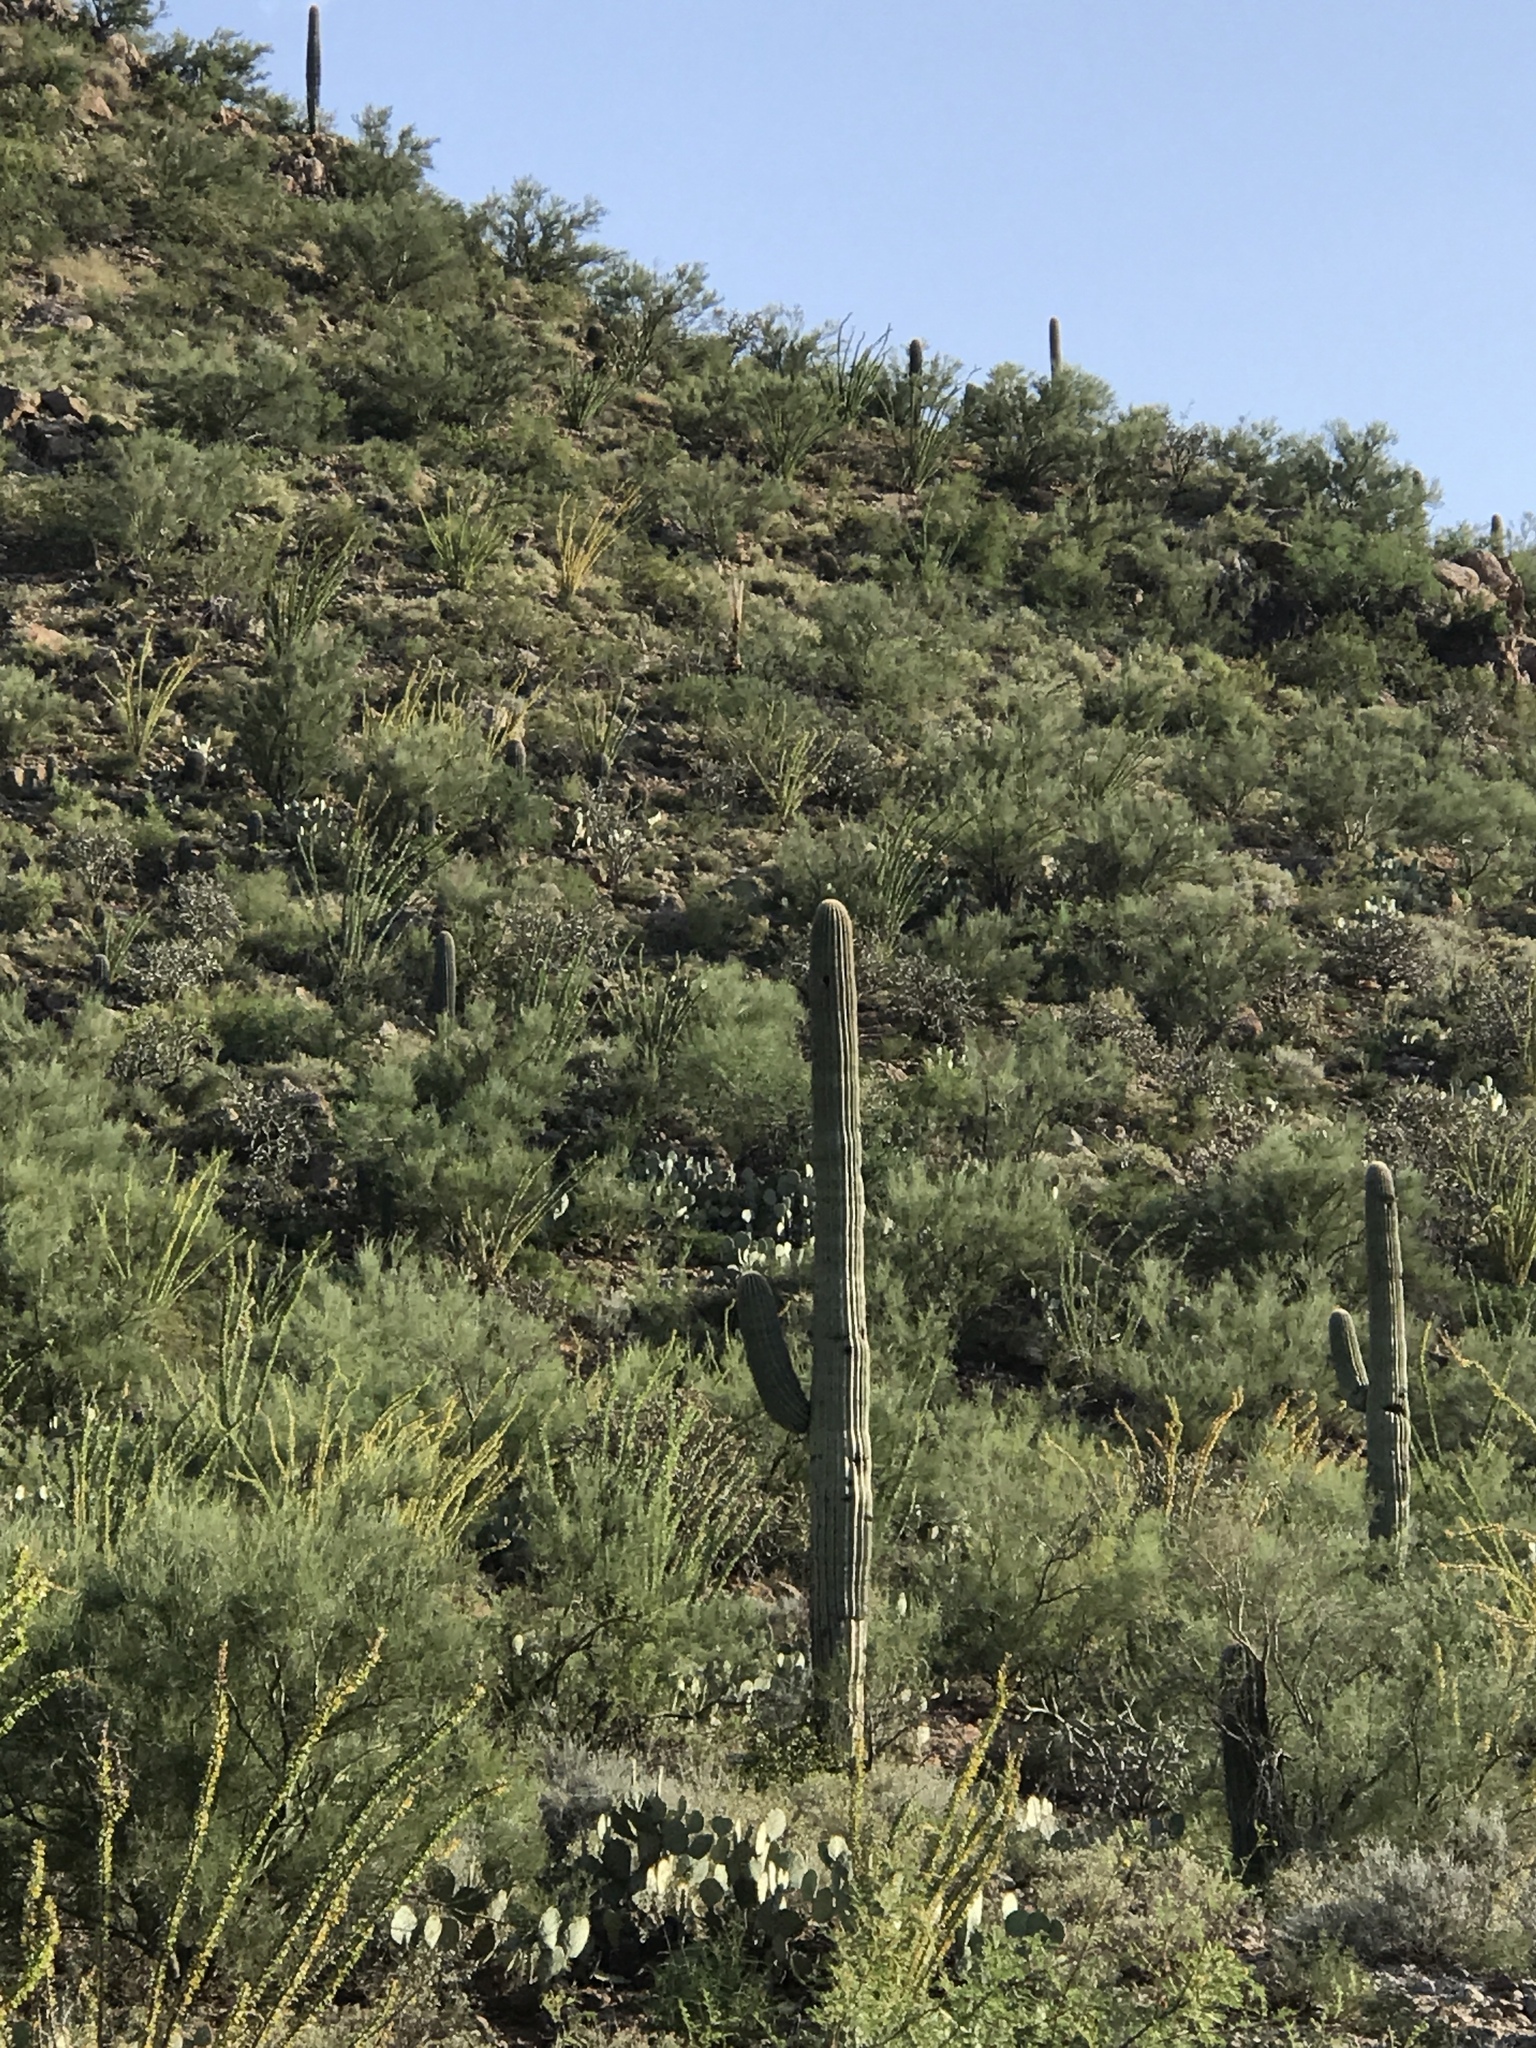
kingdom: Plantae
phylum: Tracheophyta
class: Magnoliopsida
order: Caryophyllales
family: Cactaceae
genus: Carnegiea
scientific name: Carnegiea gigantea
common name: Saguaro
